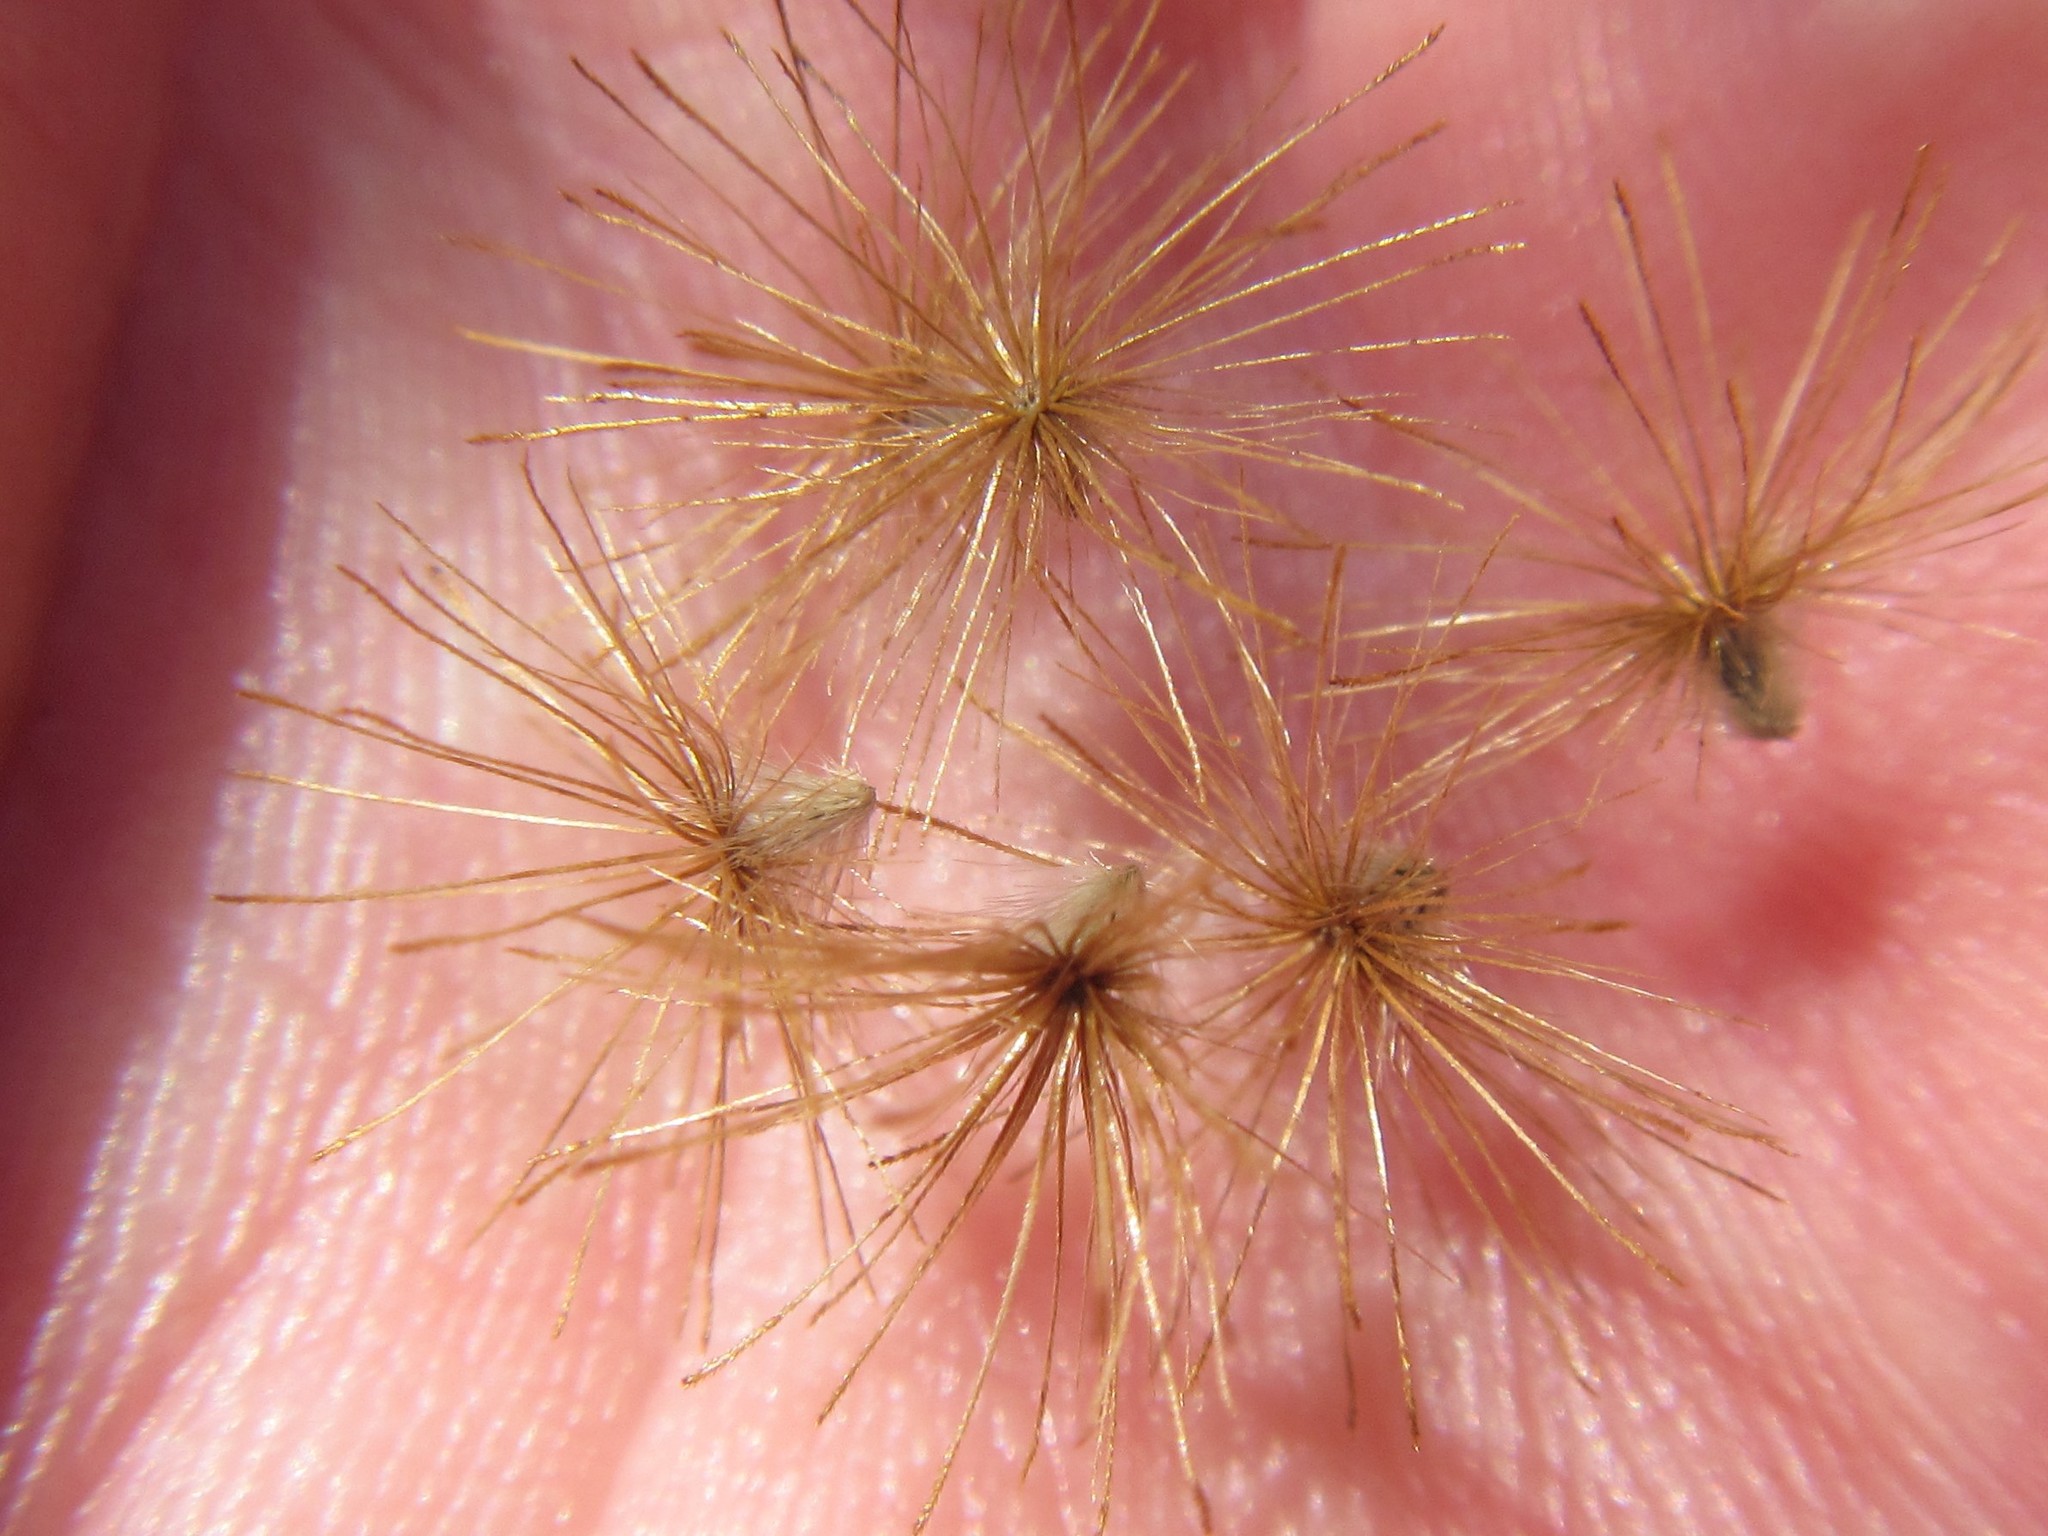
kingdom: Plantae
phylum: Tracheophyta
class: Magnoliopsida
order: Asterales
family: Asteraceae
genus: Pteronia
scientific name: Pteronia oppositifolia
